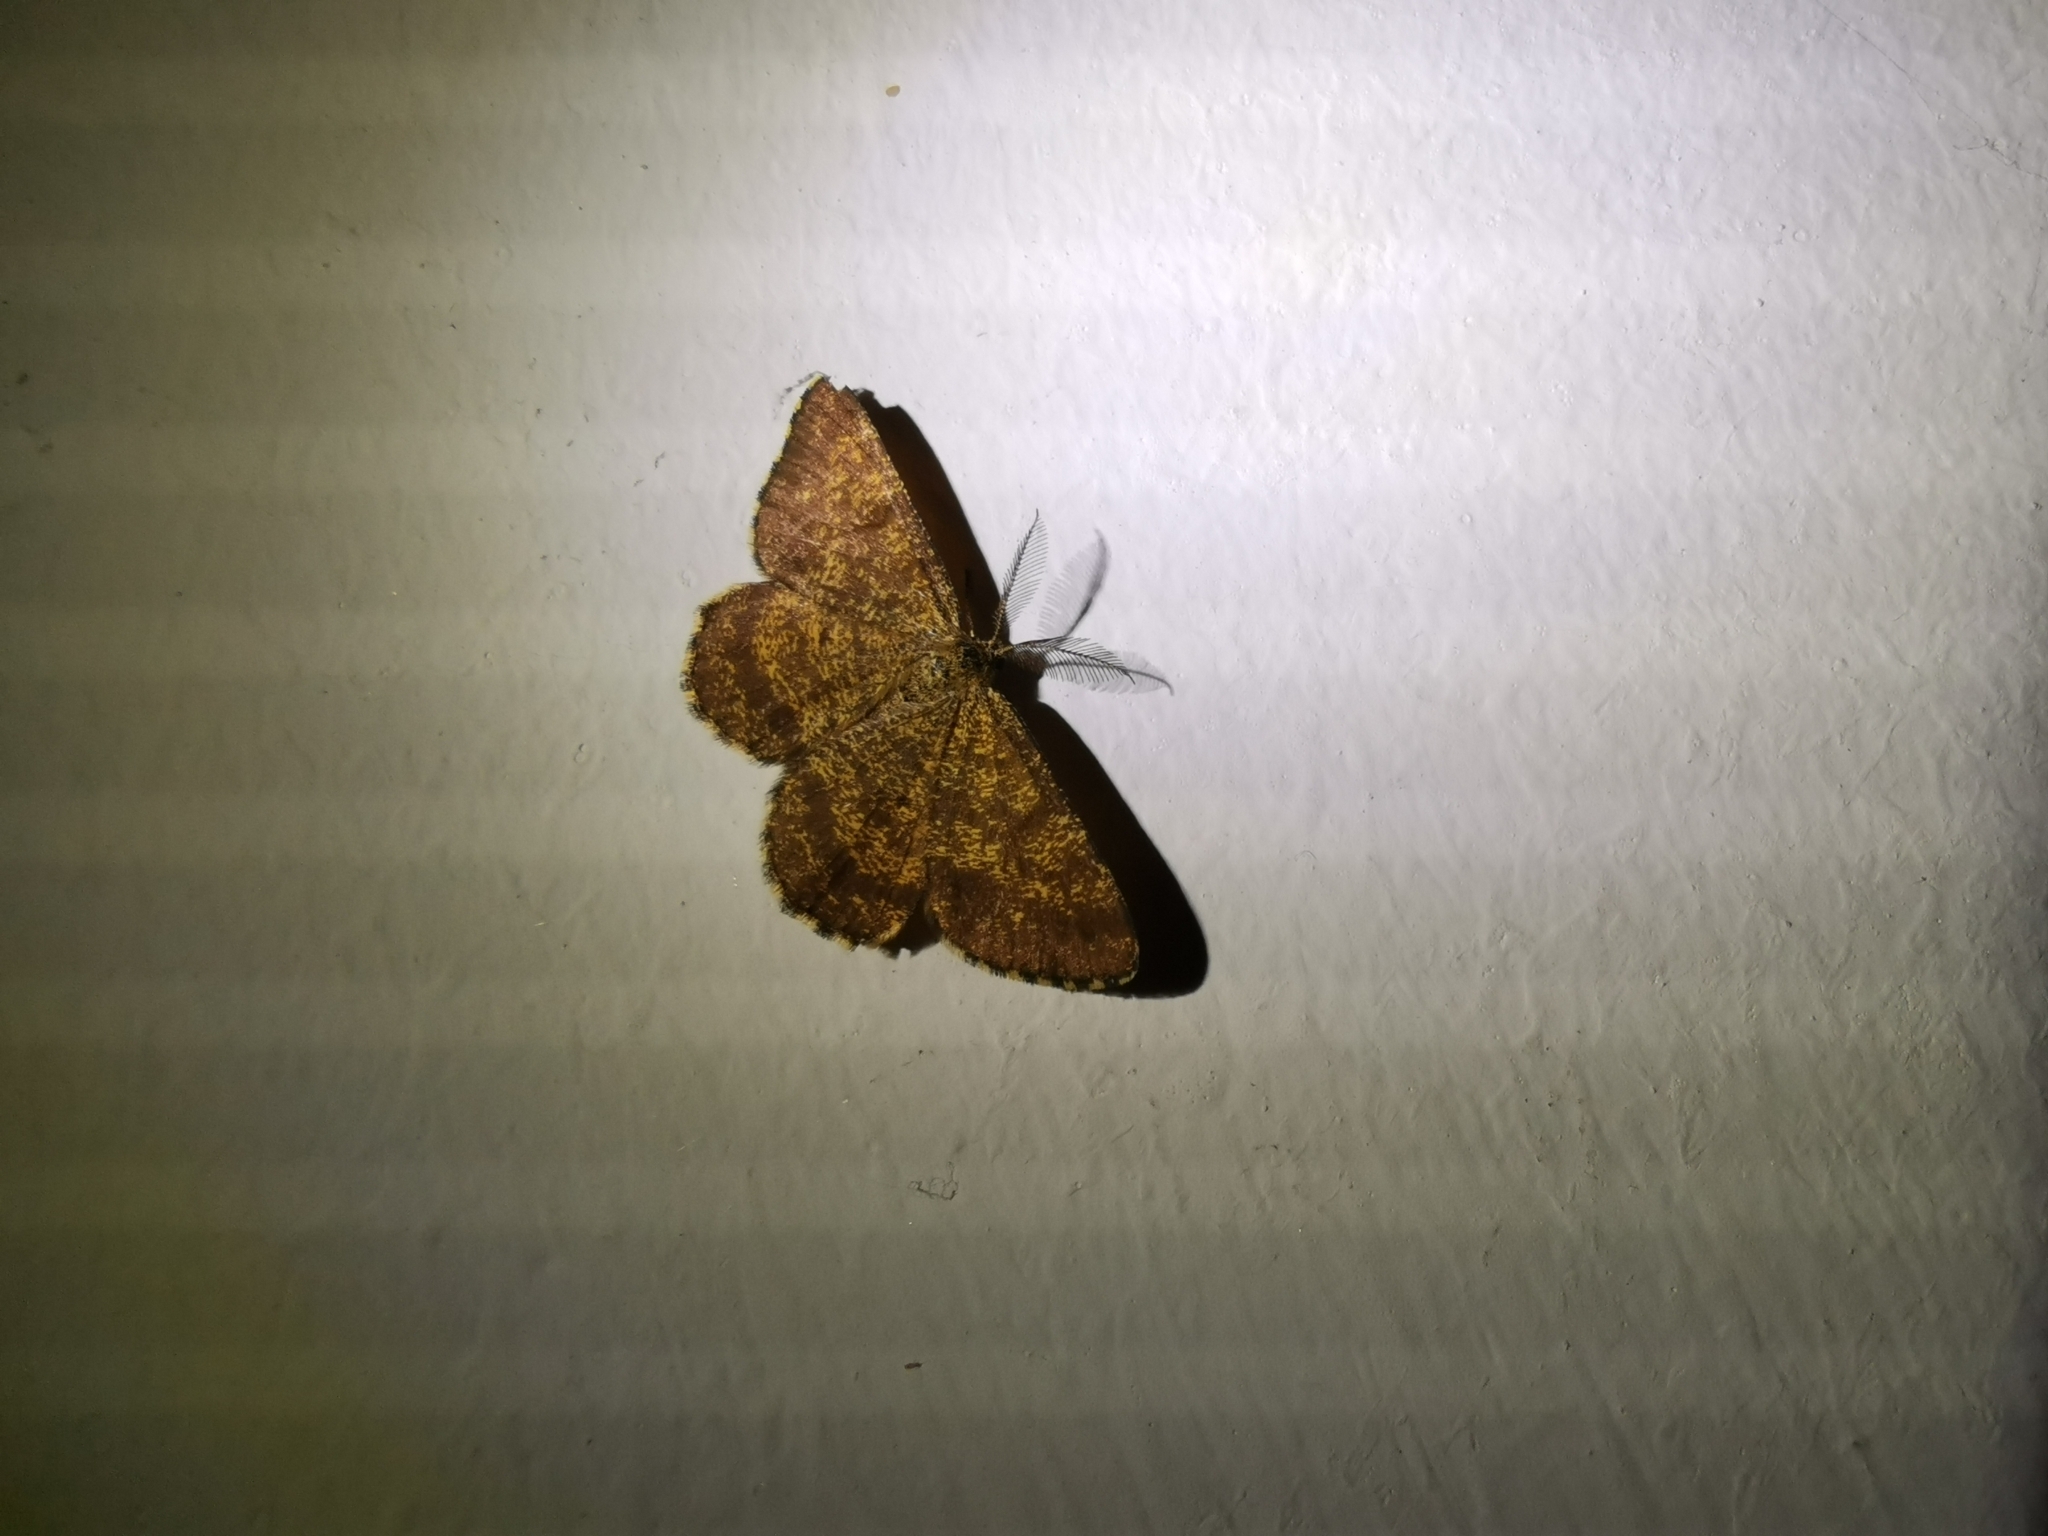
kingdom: Animalia
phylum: Arthropoda
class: Insecta
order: Lepidoptera
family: Geometridae
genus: Ematurga
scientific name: Ematurga atomaria
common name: Common heath
